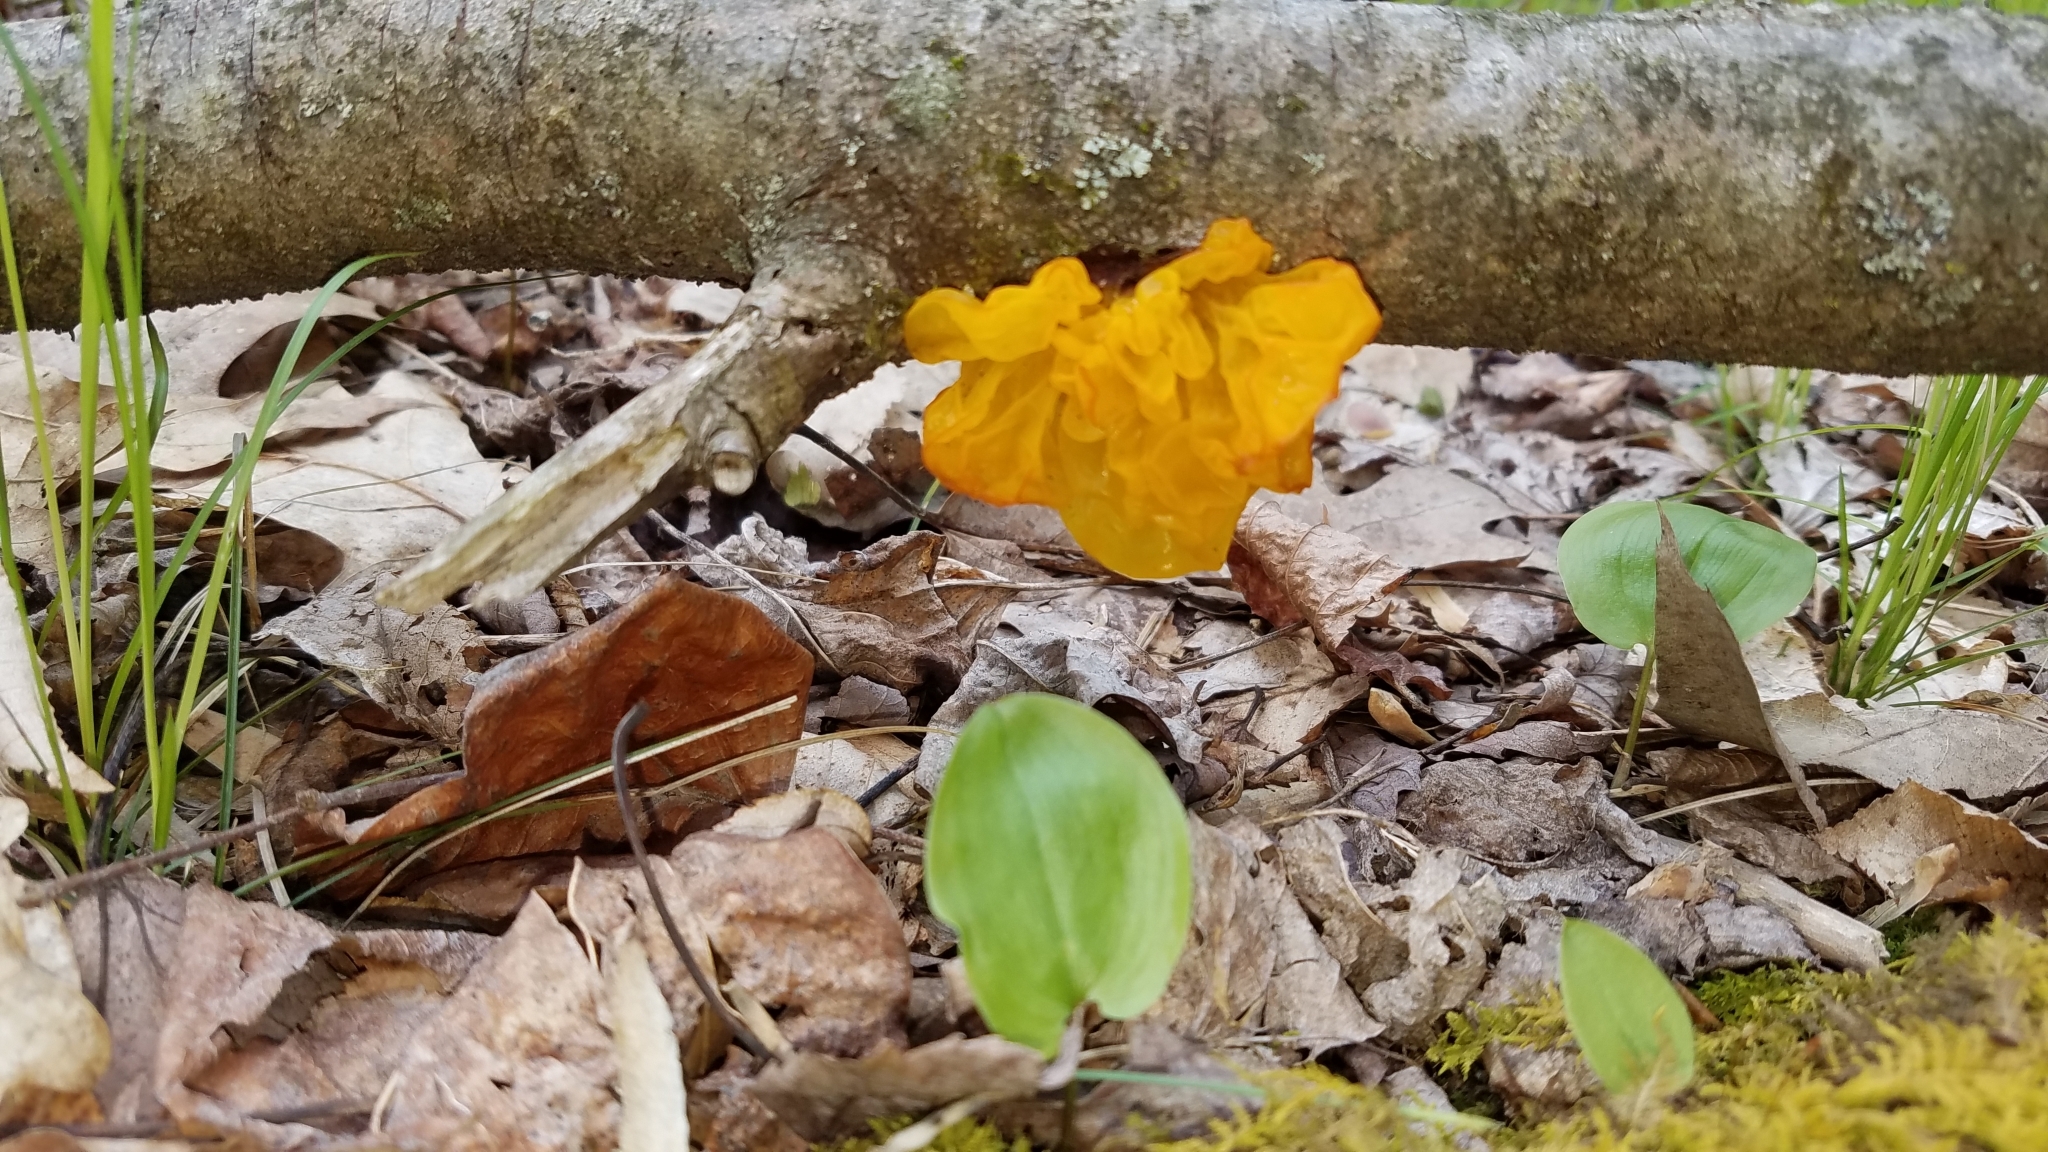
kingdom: Fungi
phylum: Basidiomycota
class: Tremellomycetes
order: Tremellales
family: Tremellaceae
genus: Tremella
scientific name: Tremella mesenterica
